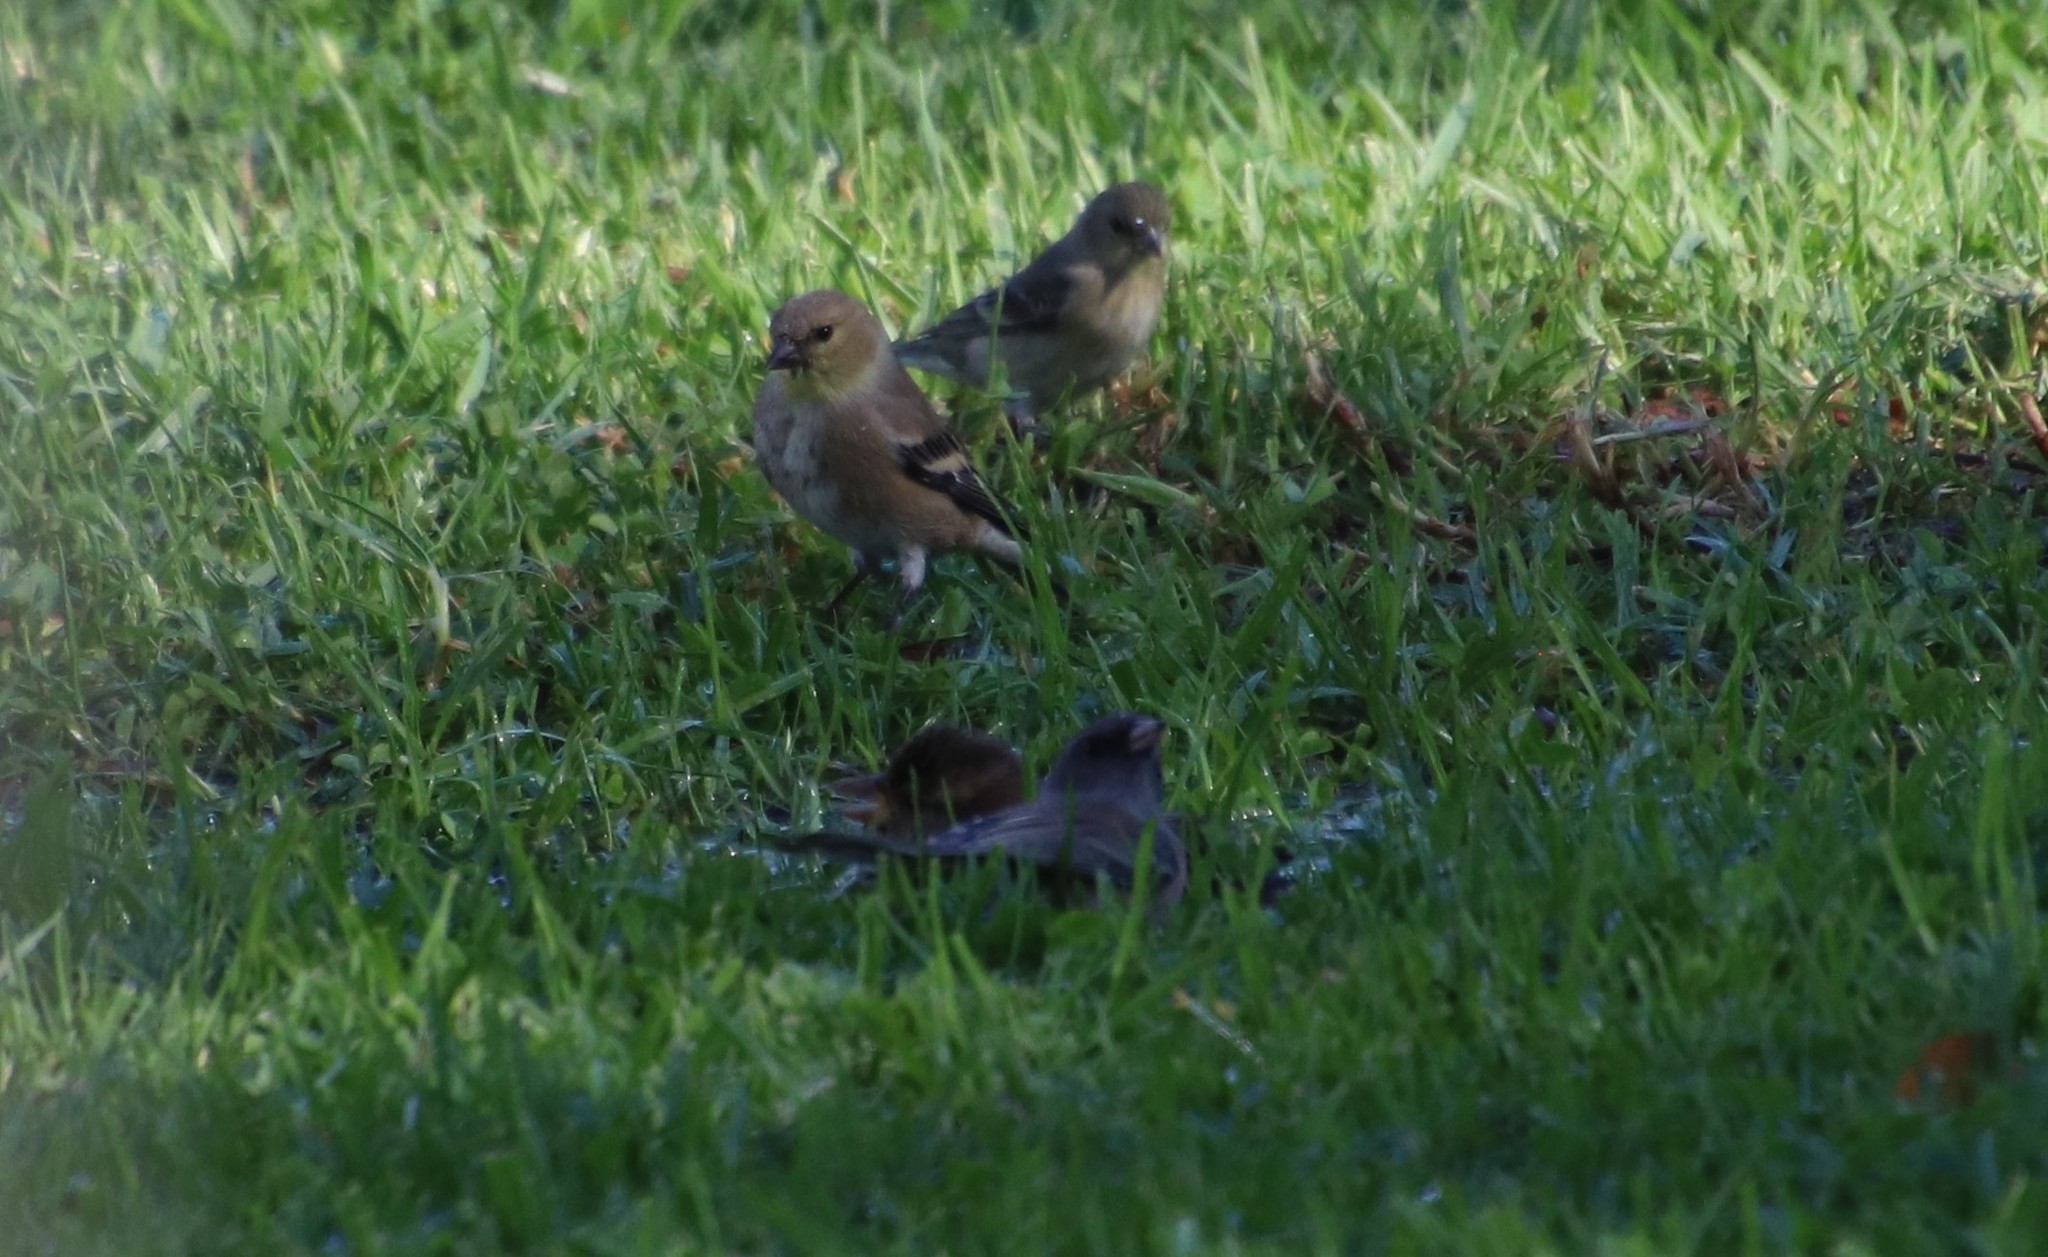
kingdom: Animalia
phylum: Chordata
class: Aves
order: Passeriformes
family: Fringillidae
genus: Spinus
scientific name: Spinus tristis
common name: American goldfinch
